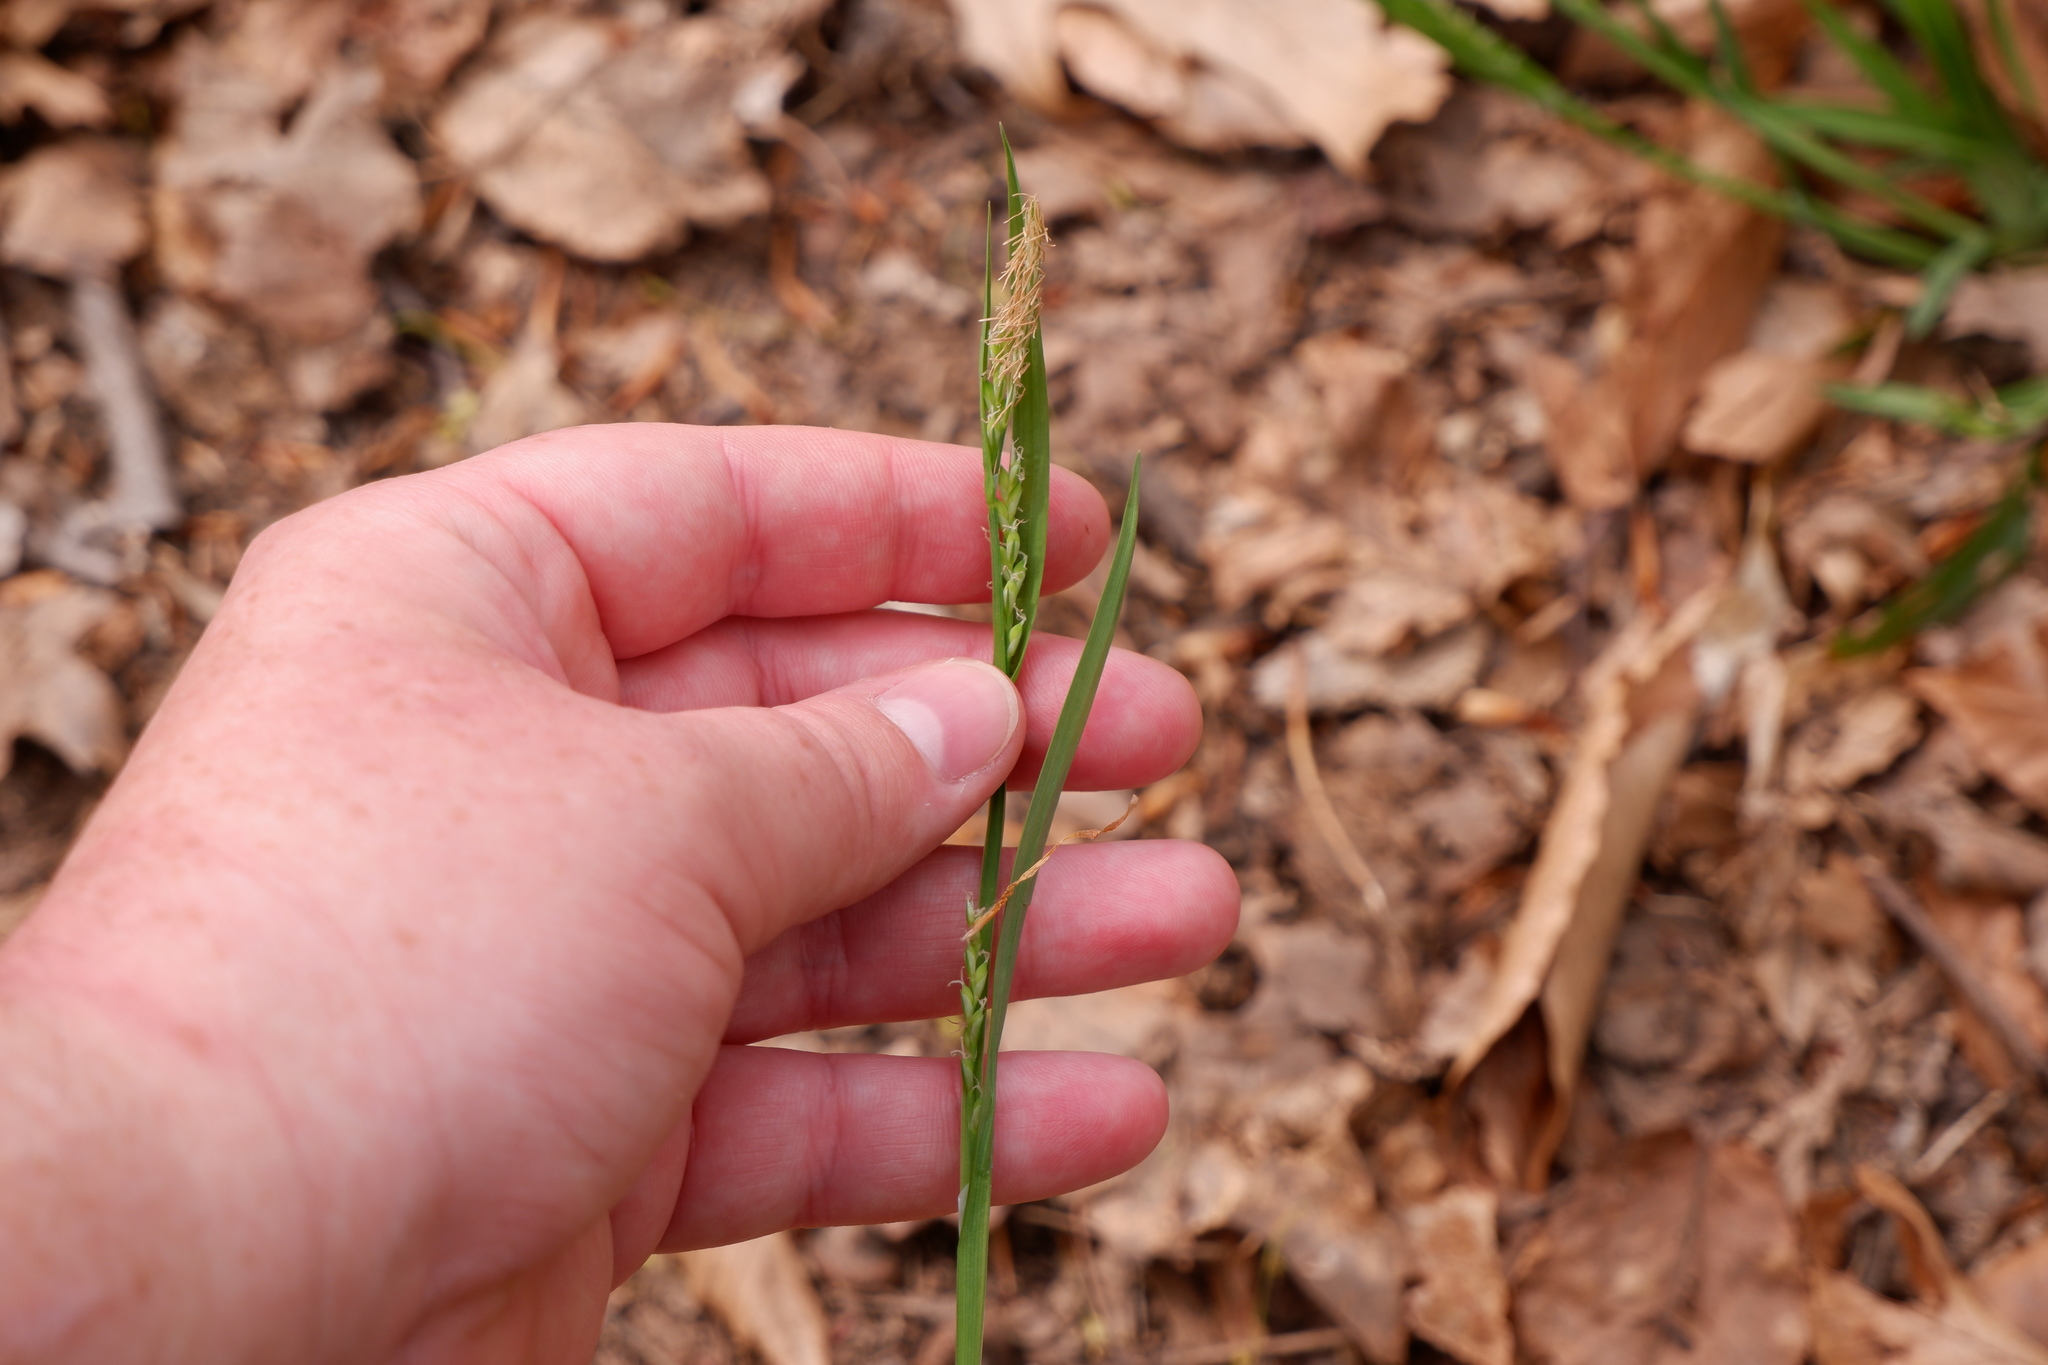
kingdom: Plantae
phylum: Tracheophyta
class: Liliopsida
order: Poales
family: Cyperaceae
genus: Carex
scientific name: Carex laxiflora
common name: Beech wood sedge
